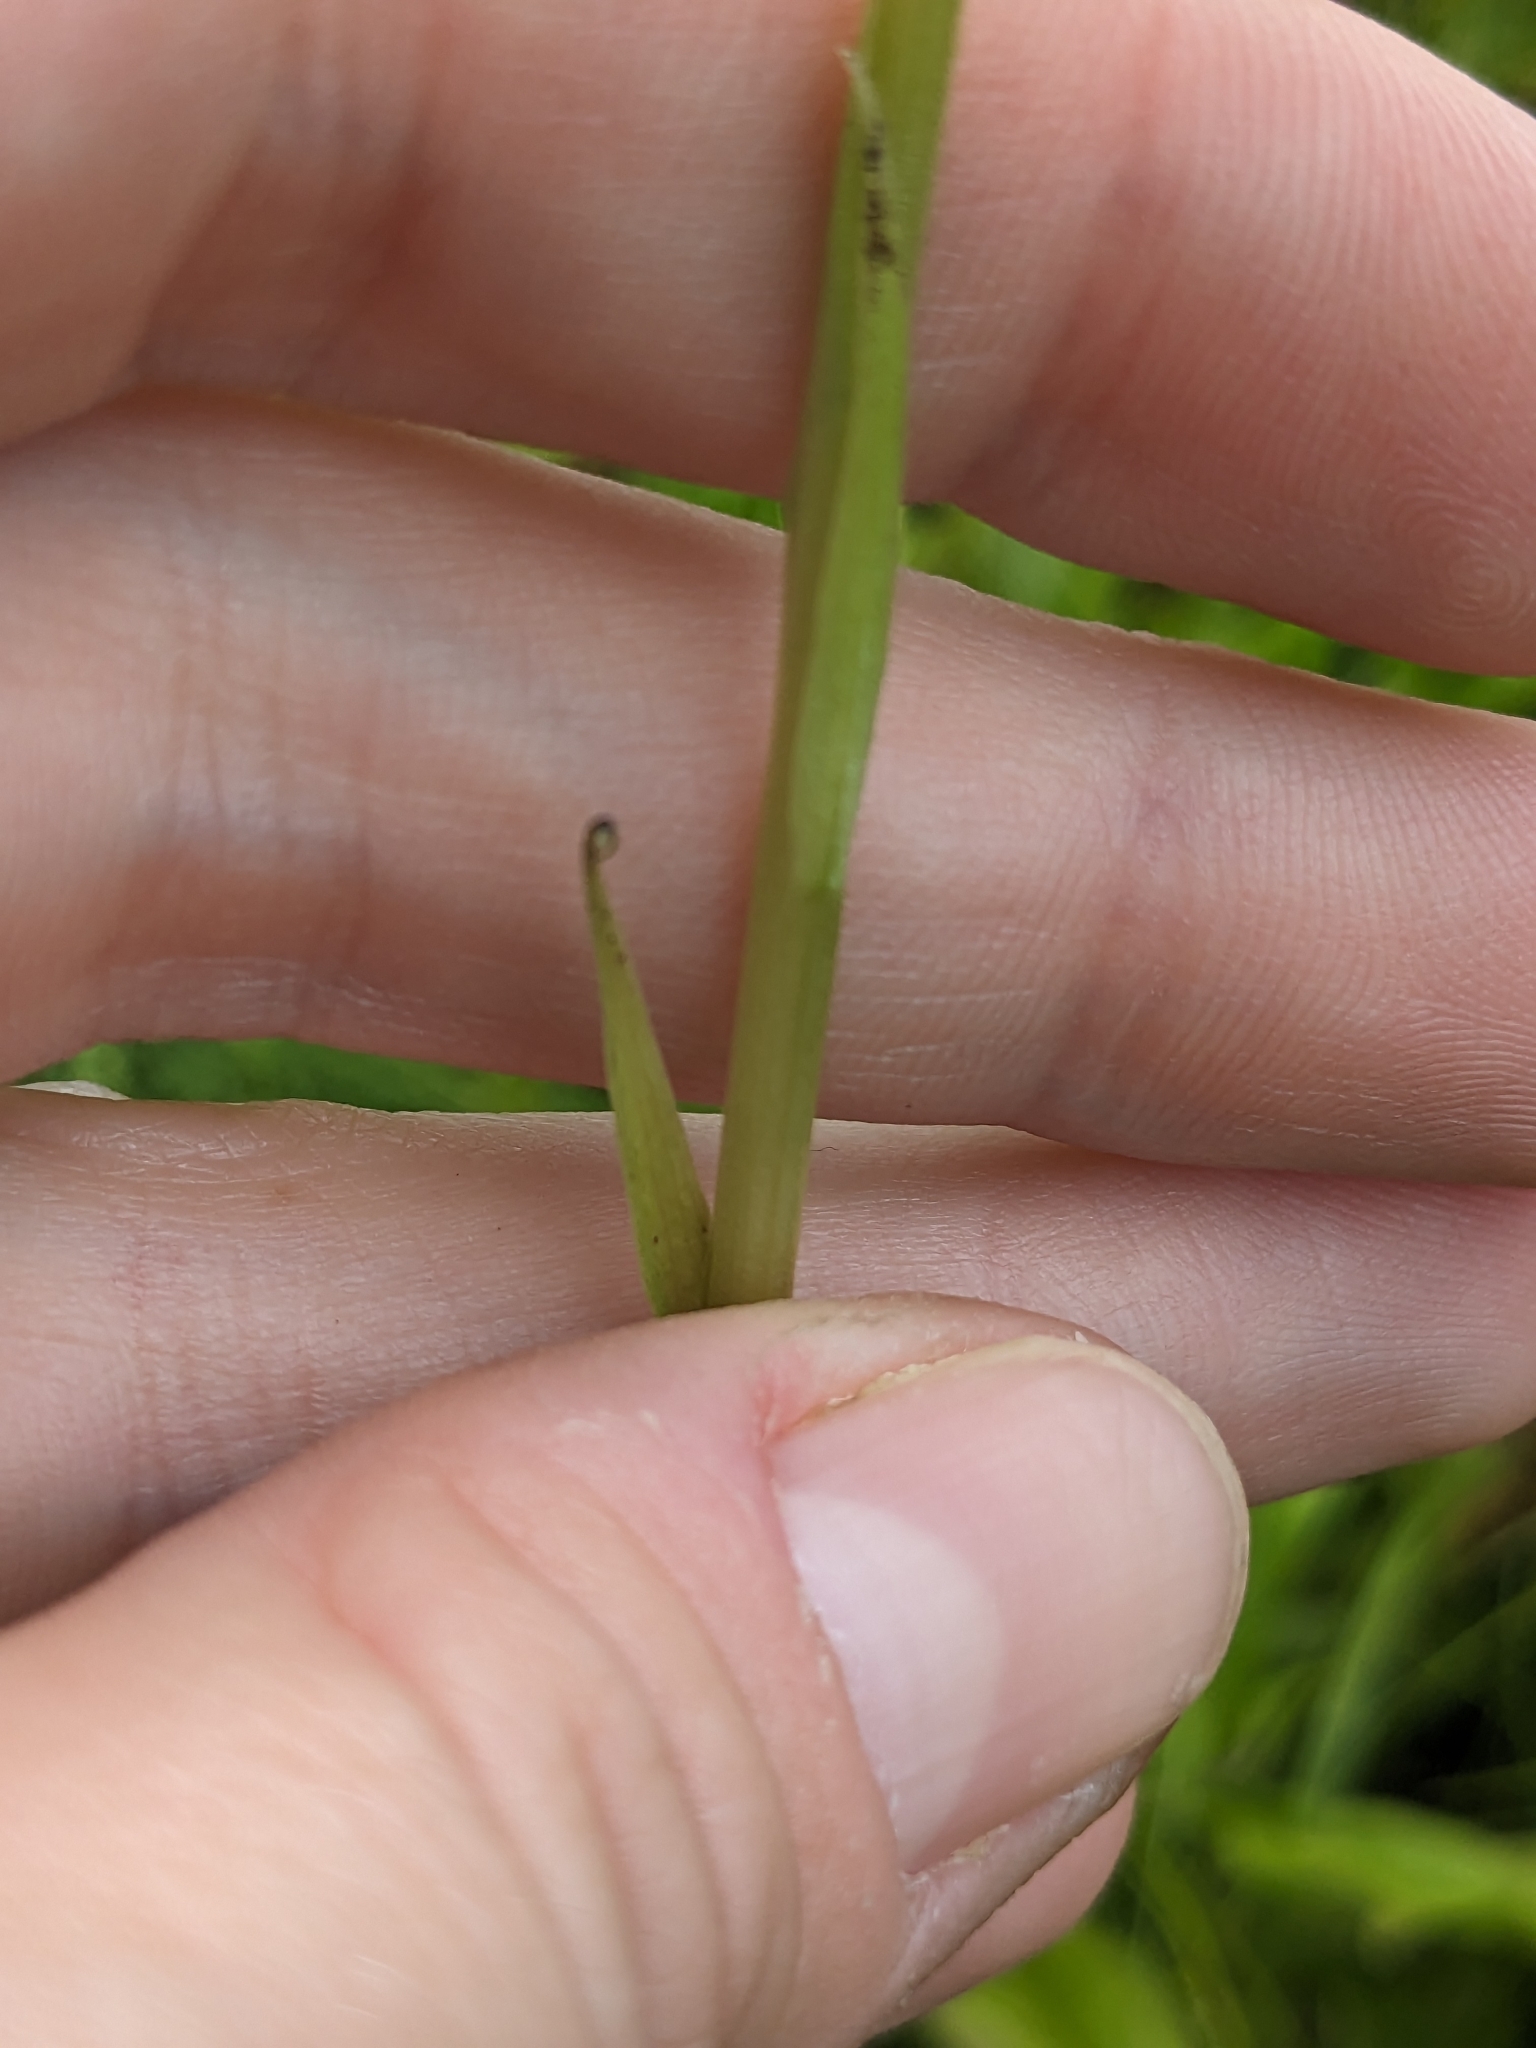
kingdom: Plantae
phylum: Tracheophyta
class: Liliopsida
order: Asparagales
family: Orchidaceae
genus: Platanthera
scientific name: Platanthera psycodes
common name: Lesser purple fringed orchid
